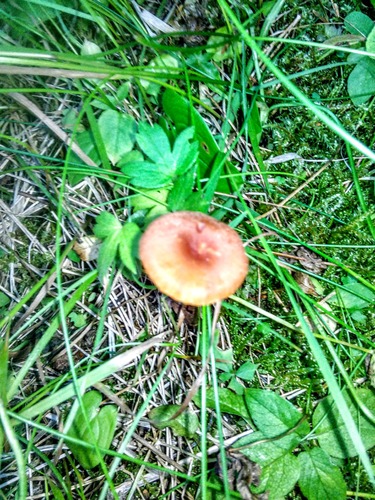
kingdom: Fungi
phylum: Basidiomycota
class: Agaricomycetes
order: Agaricales
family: Hydnangiaceae
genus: Laccaria
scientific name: Laccaria proxima
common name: Scurfy deceiver
